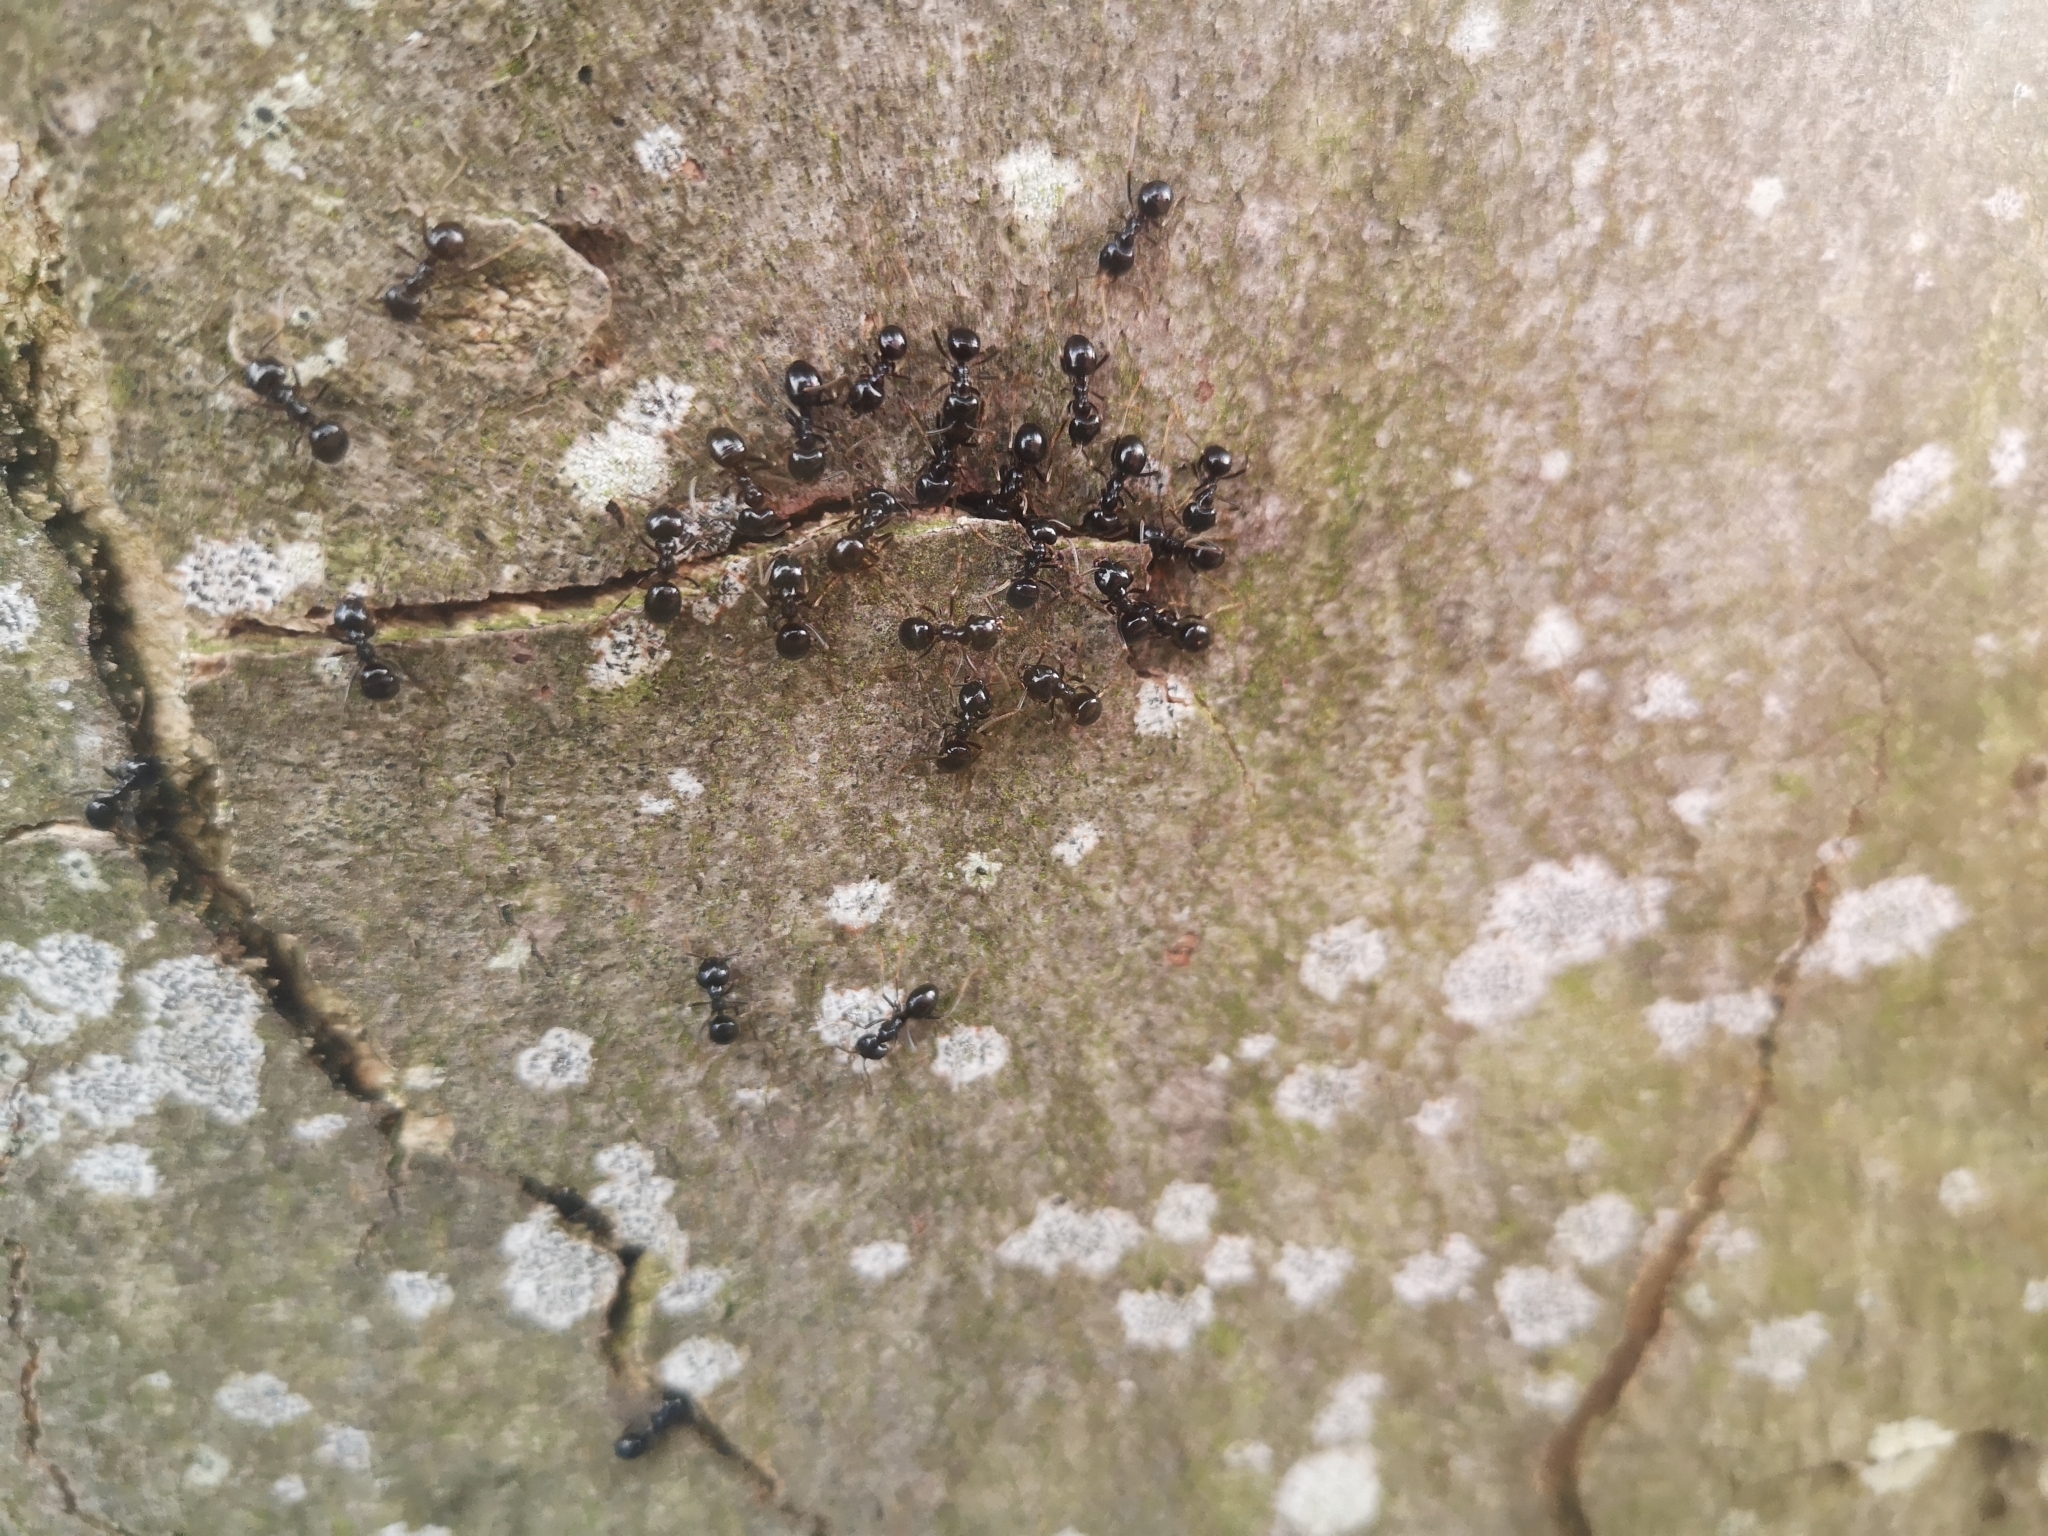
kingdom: Animalia
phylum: Arthropoda
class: Insecta
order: Hymenoptera
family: Formicidae
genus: Lasius
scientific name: Lasius fuliginosus
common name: Jet ant
